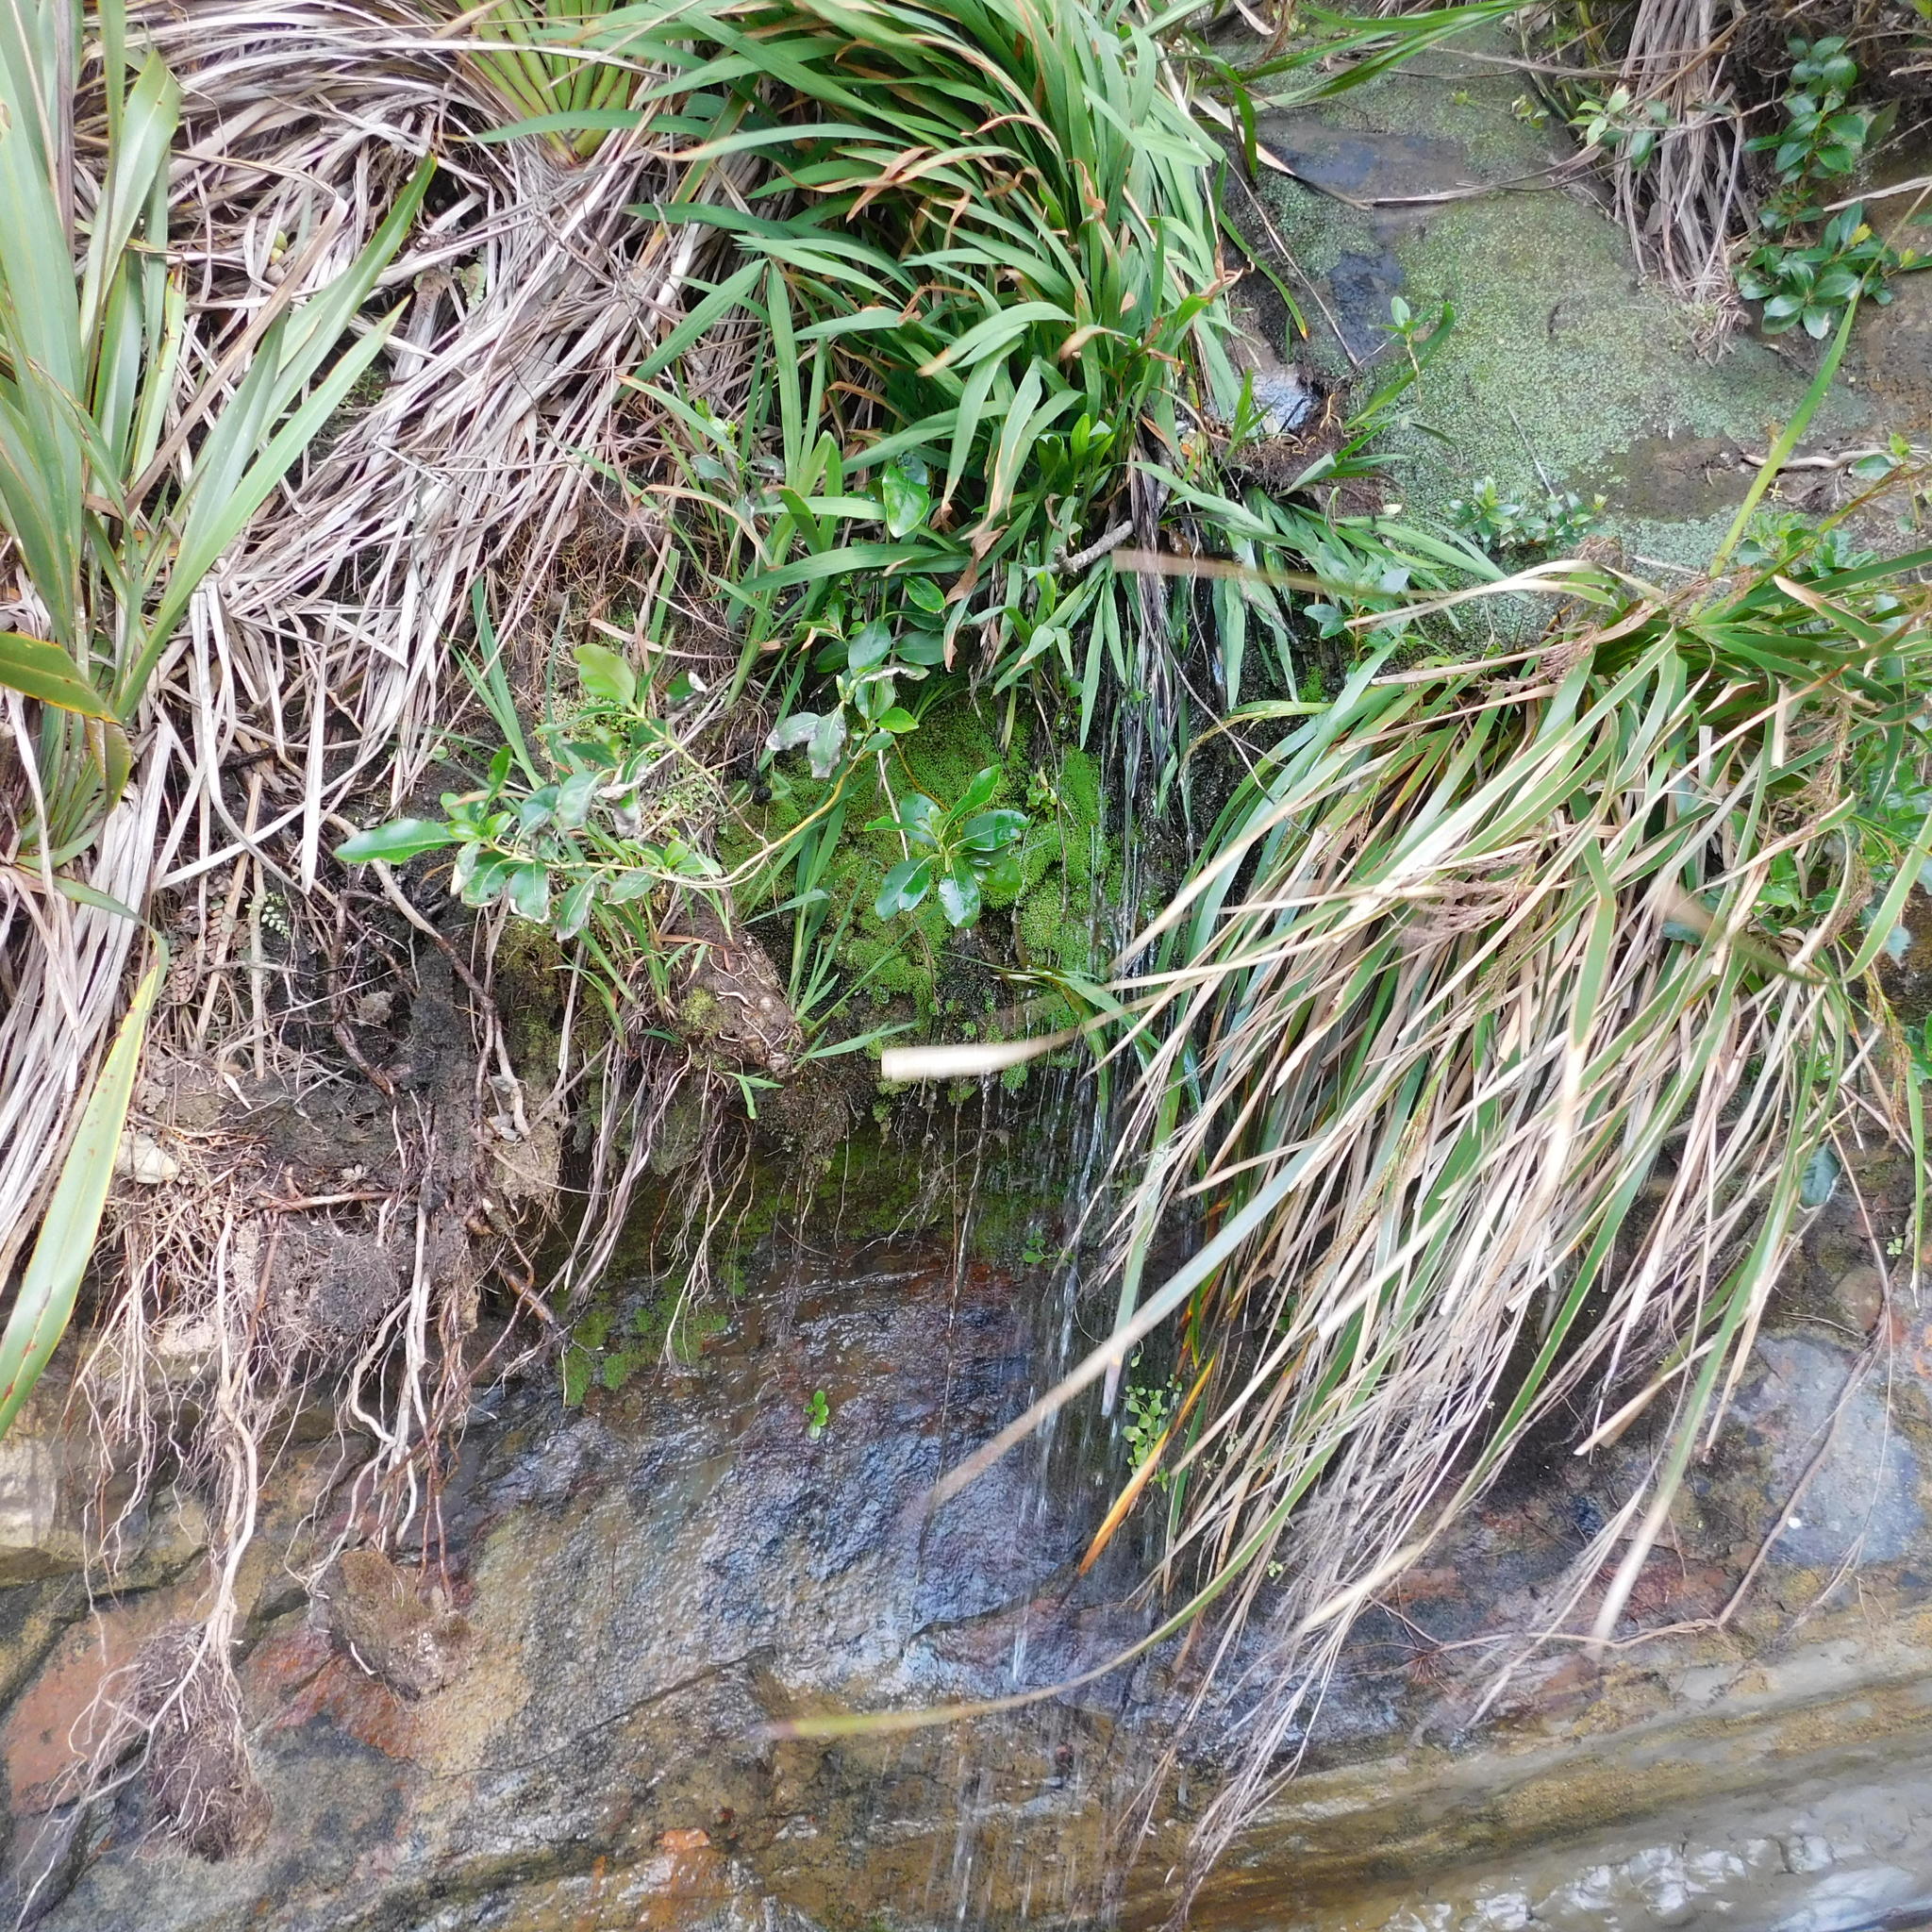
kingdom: Plantae
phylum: Bryophyta
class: Bryopsida
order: Bartramiales
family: Bartramiaceae
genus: Philonotis
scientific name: Philonotis tenuis
